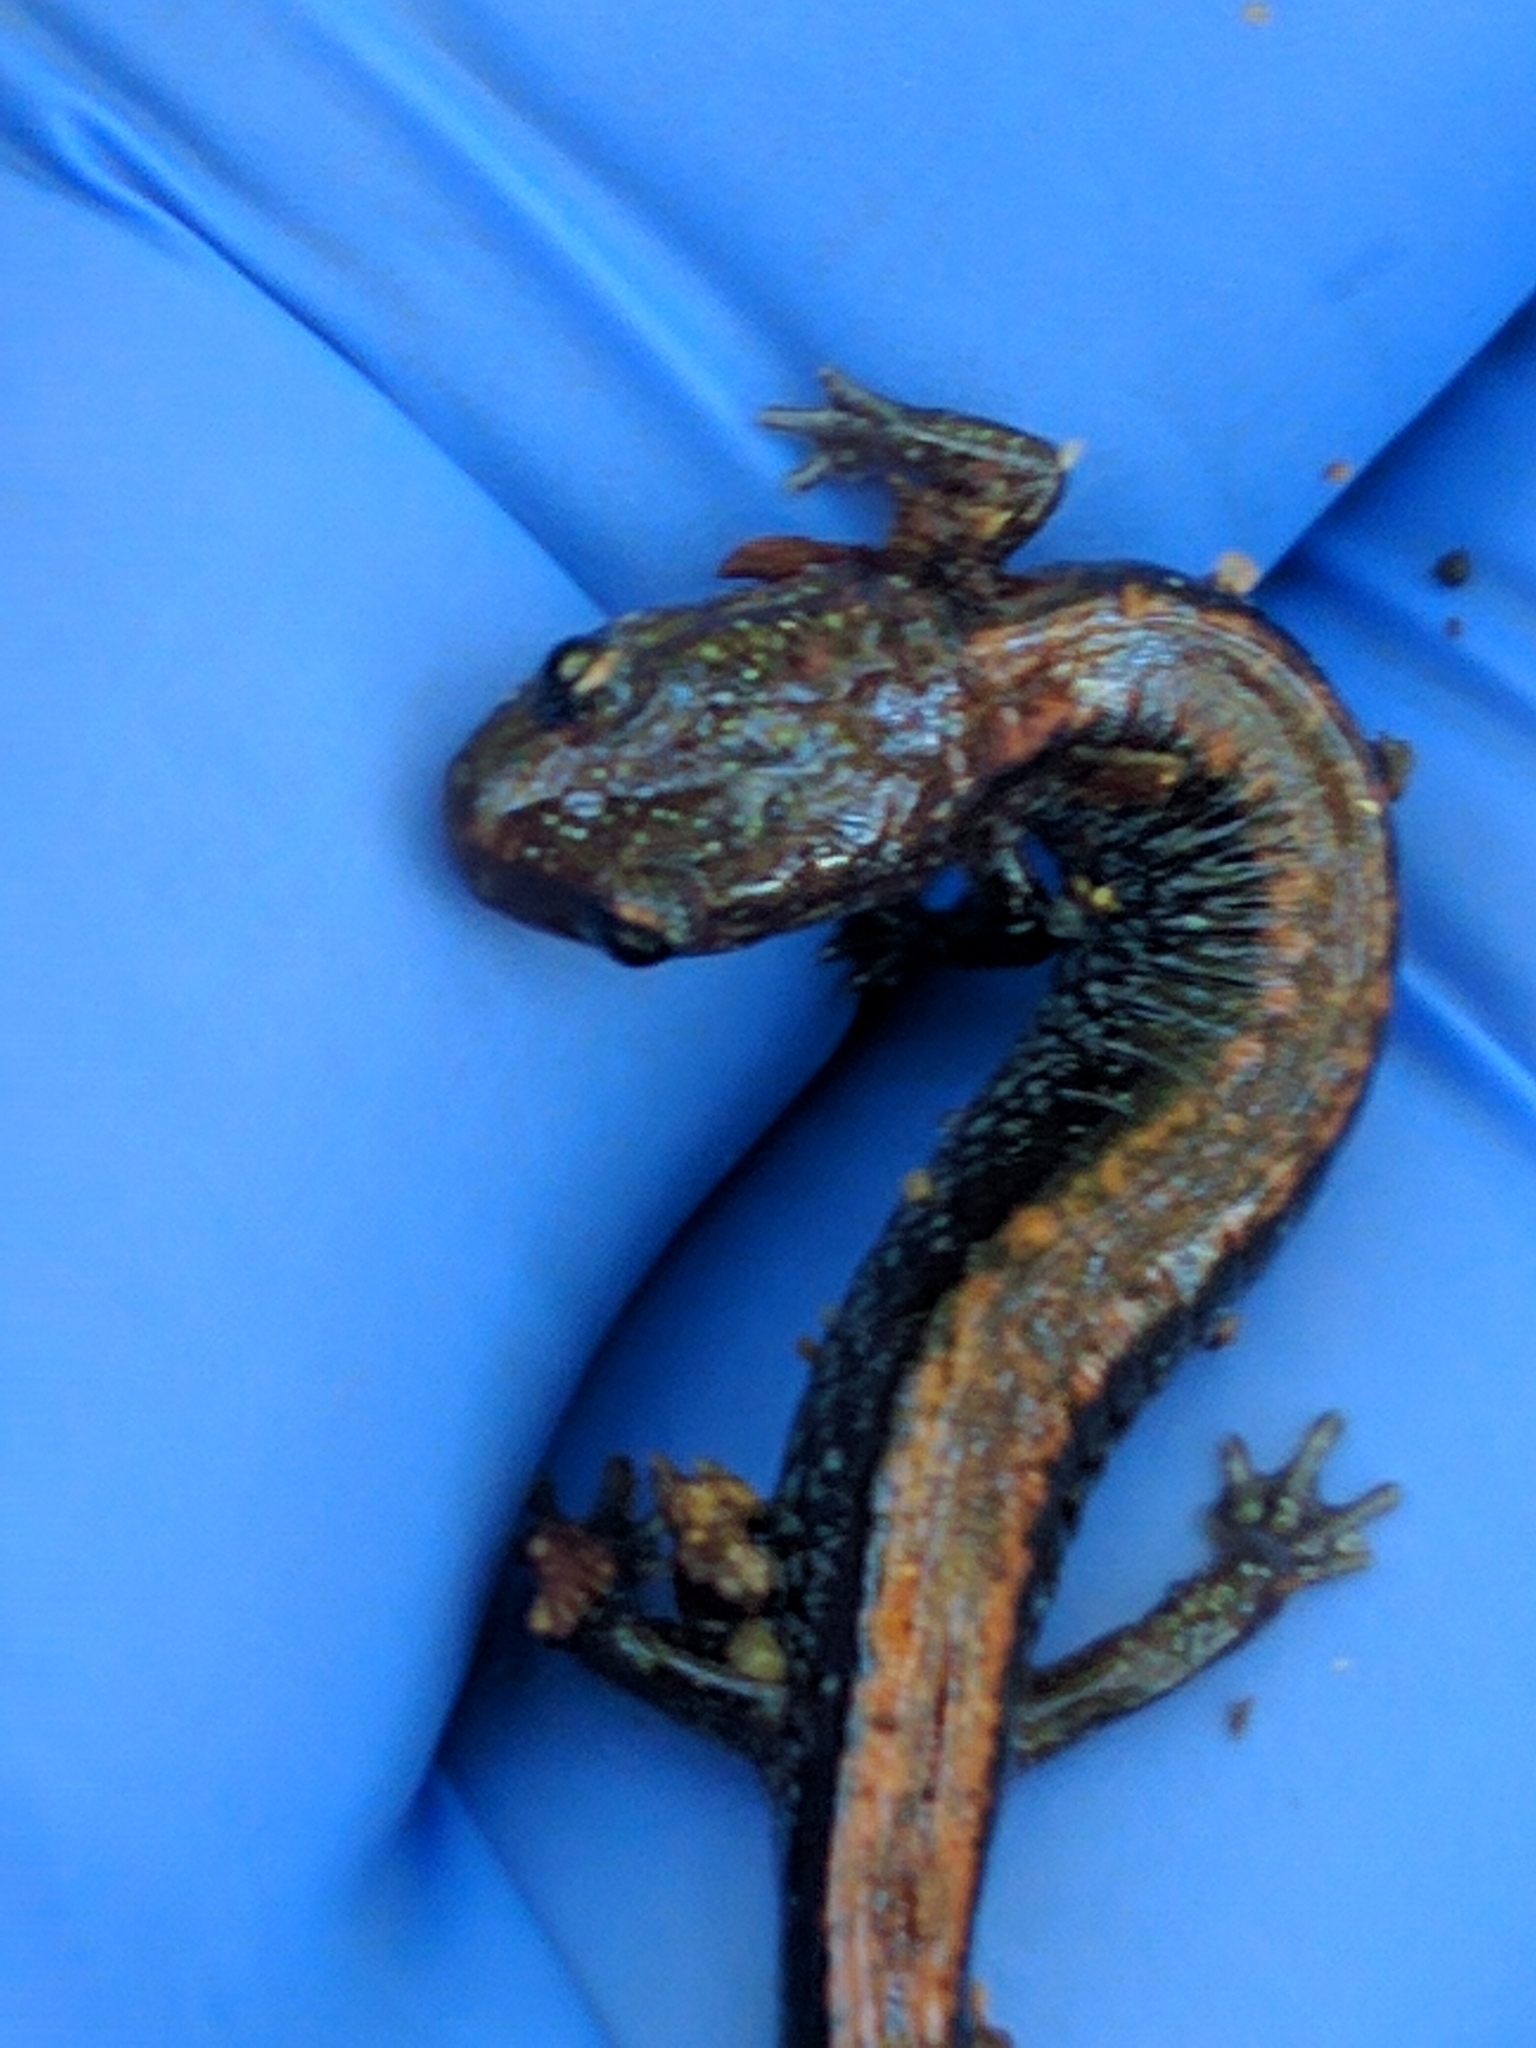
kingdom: Animalia
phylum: Chordata
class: Amphibia
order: Caudata
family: Plethodontidae
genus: Plethodon
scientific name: Plethodon cinereus
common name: Redback salamander
